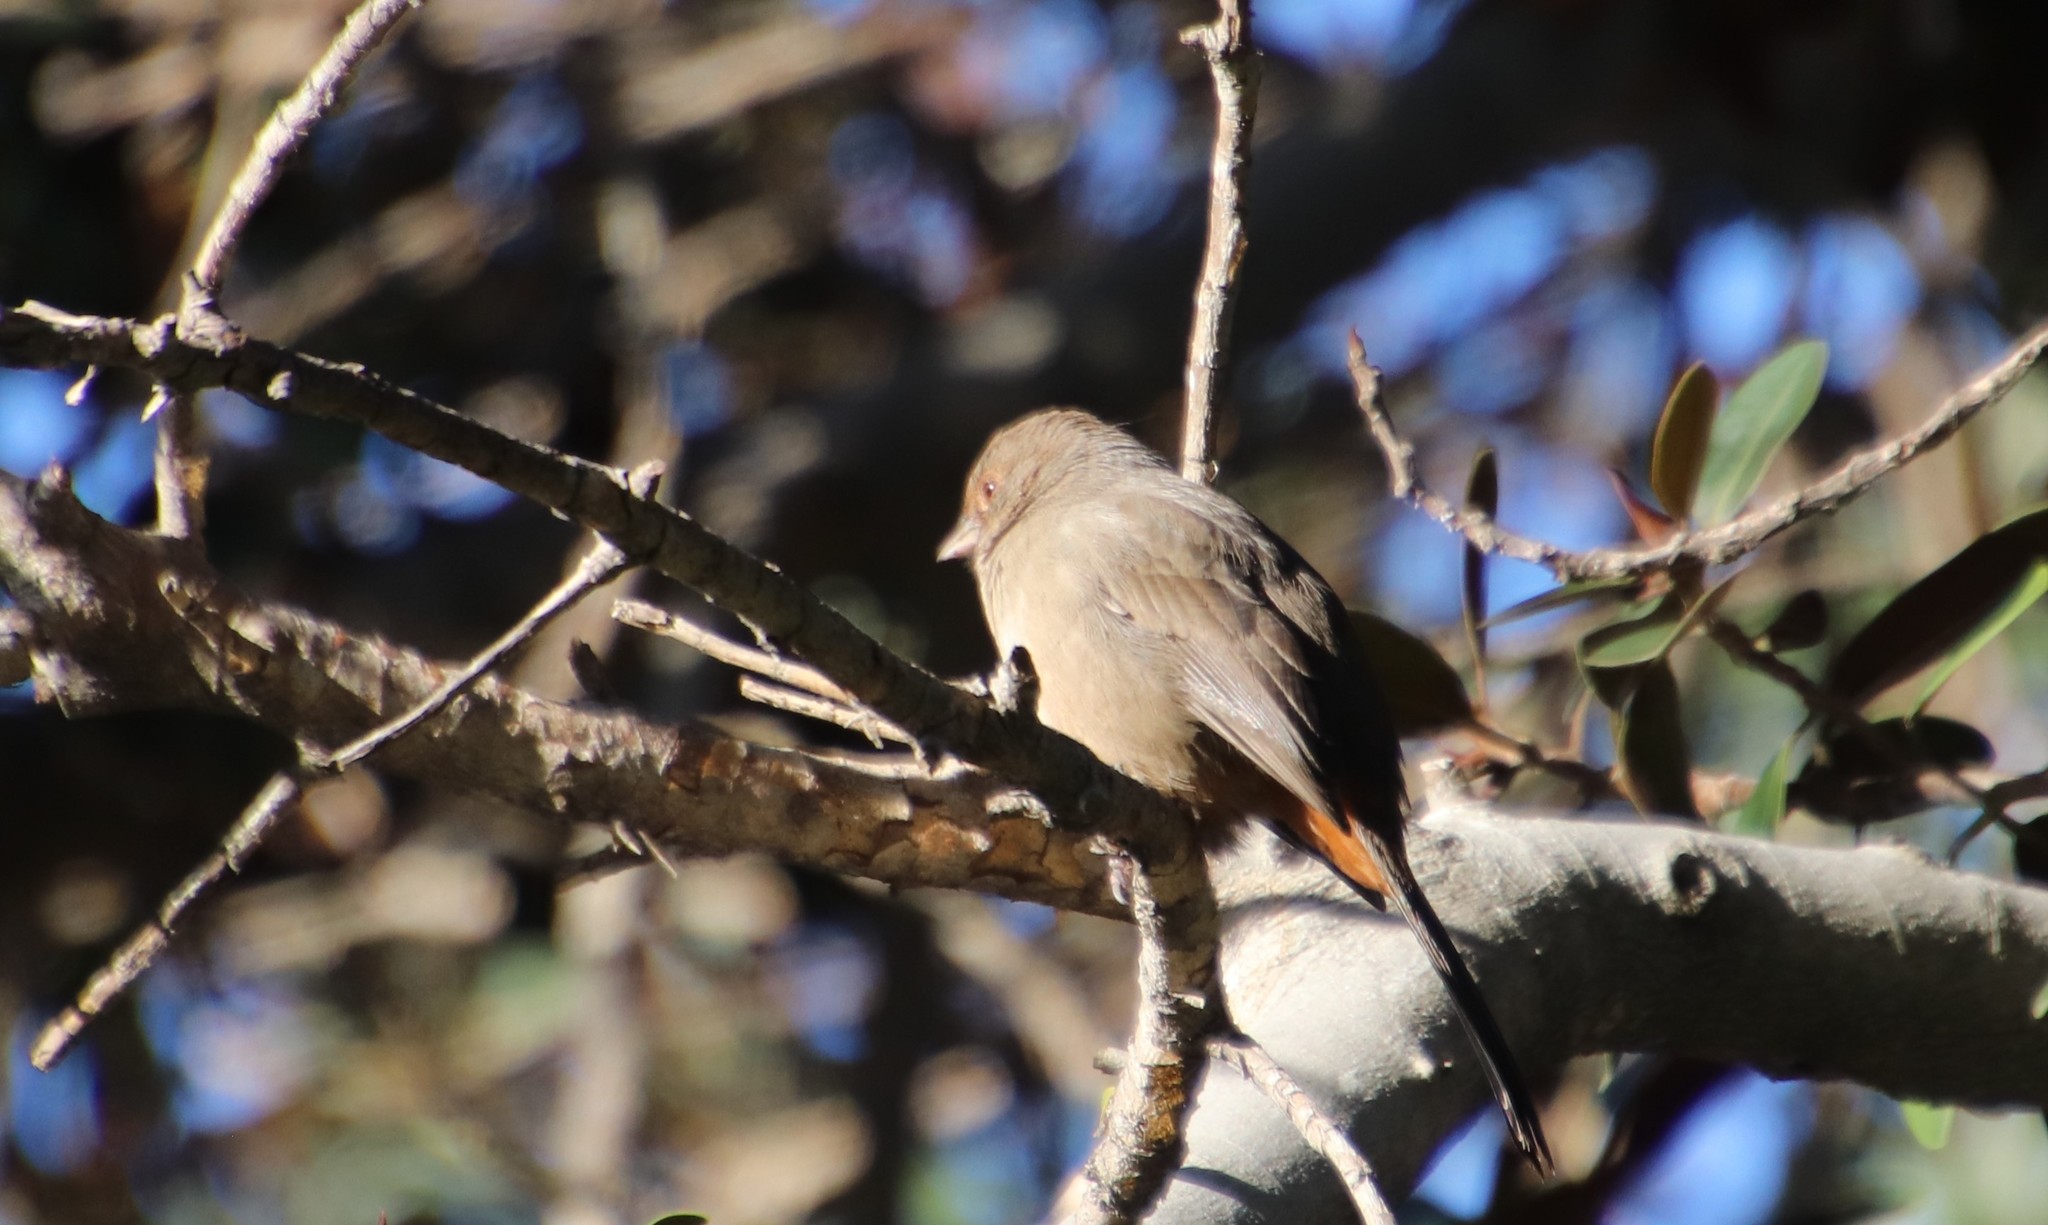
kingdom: Animalia
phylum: Chordata
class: Aves
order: Passeriformes
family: Passerellidae
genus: Melozone
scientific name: Melozone crissalis
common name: California towhee
